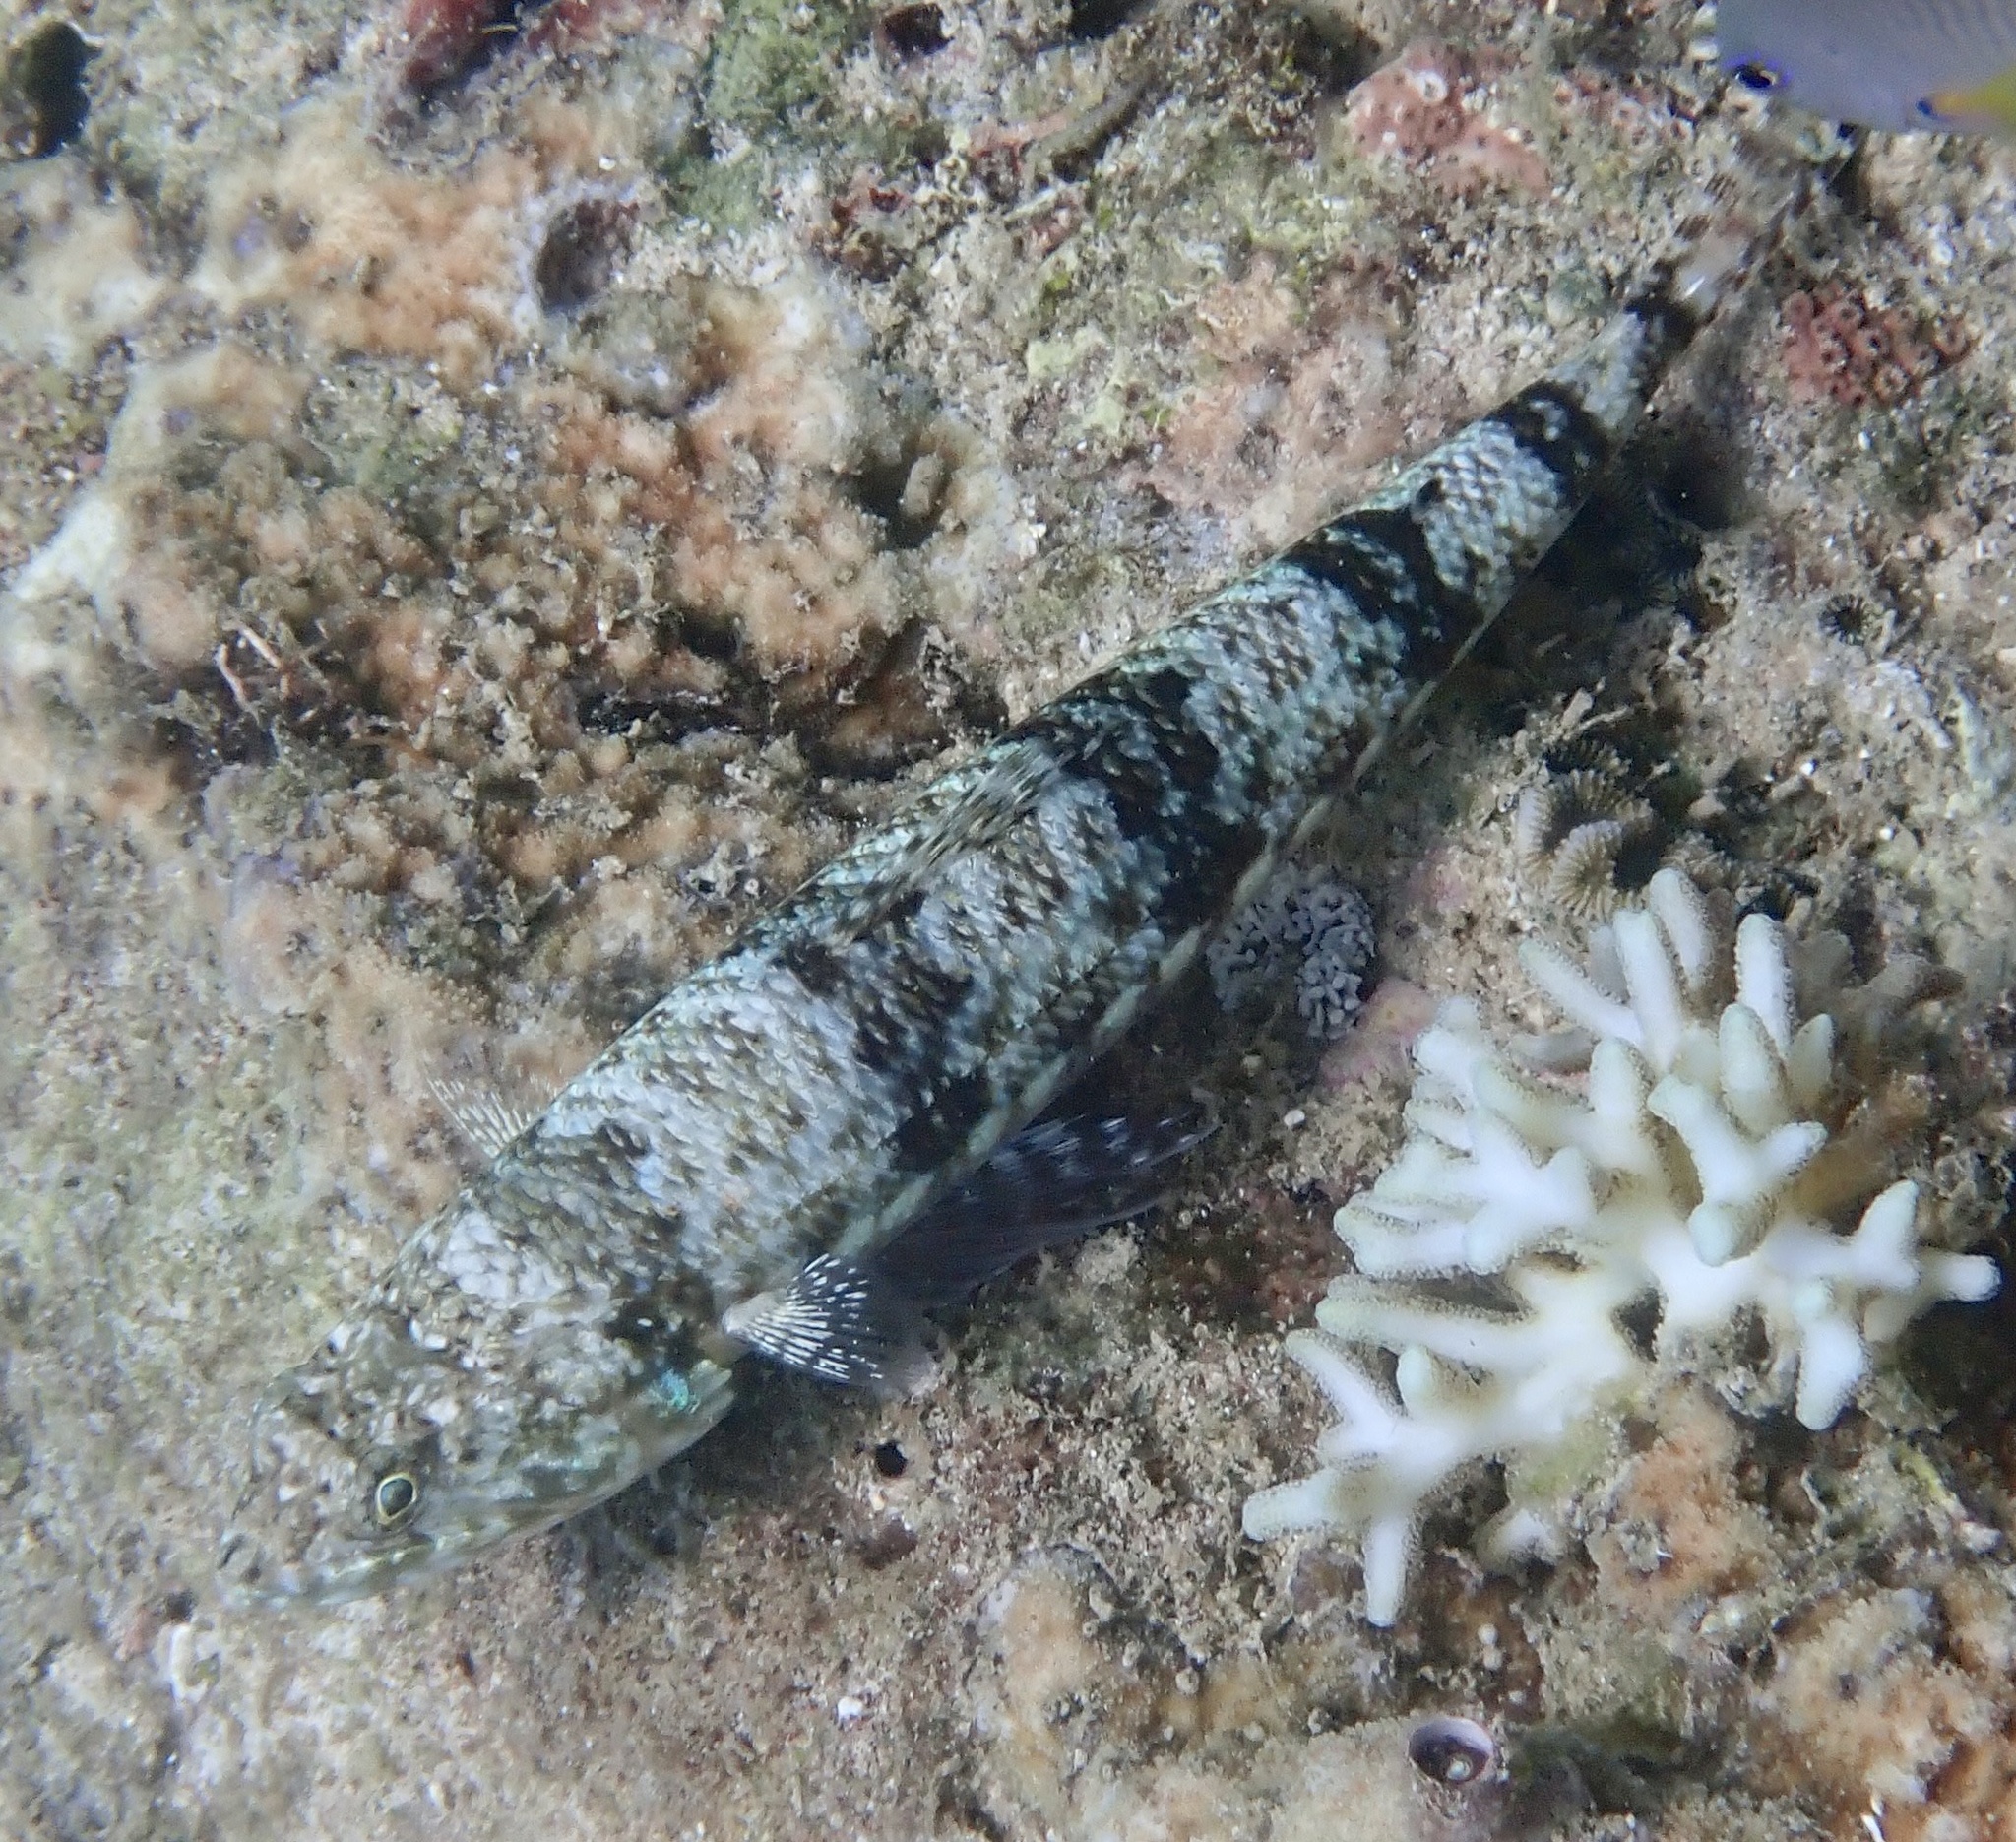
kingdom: Animalia
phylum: Chordata
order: Aulopiformes
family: Synodontidae
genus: Synodus
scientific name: Synodus variegatus
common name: Variegated lizardfish
